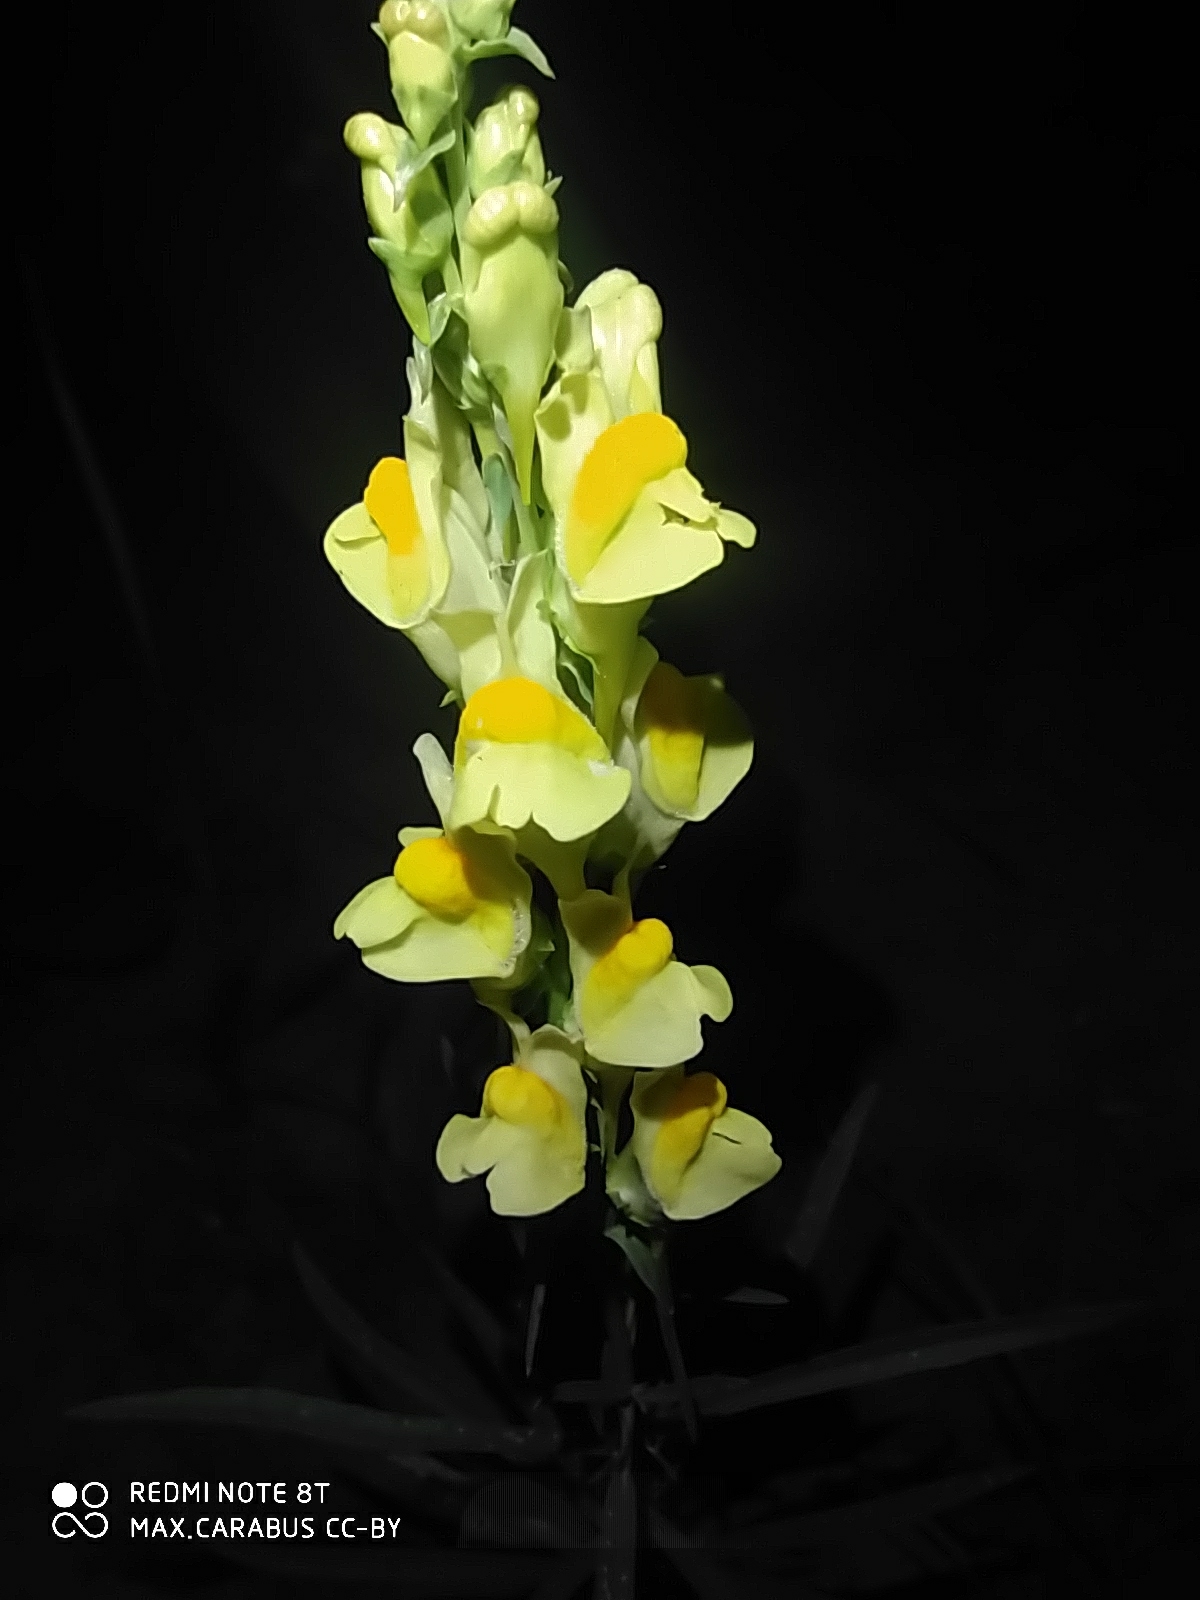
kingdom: Plantae
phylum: Tracheophyta
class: Magnoliopsida
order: Lamiales
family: Plantaginaceae
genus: Linaria
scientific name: Linaria vulgaris
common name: Butter and eggs
